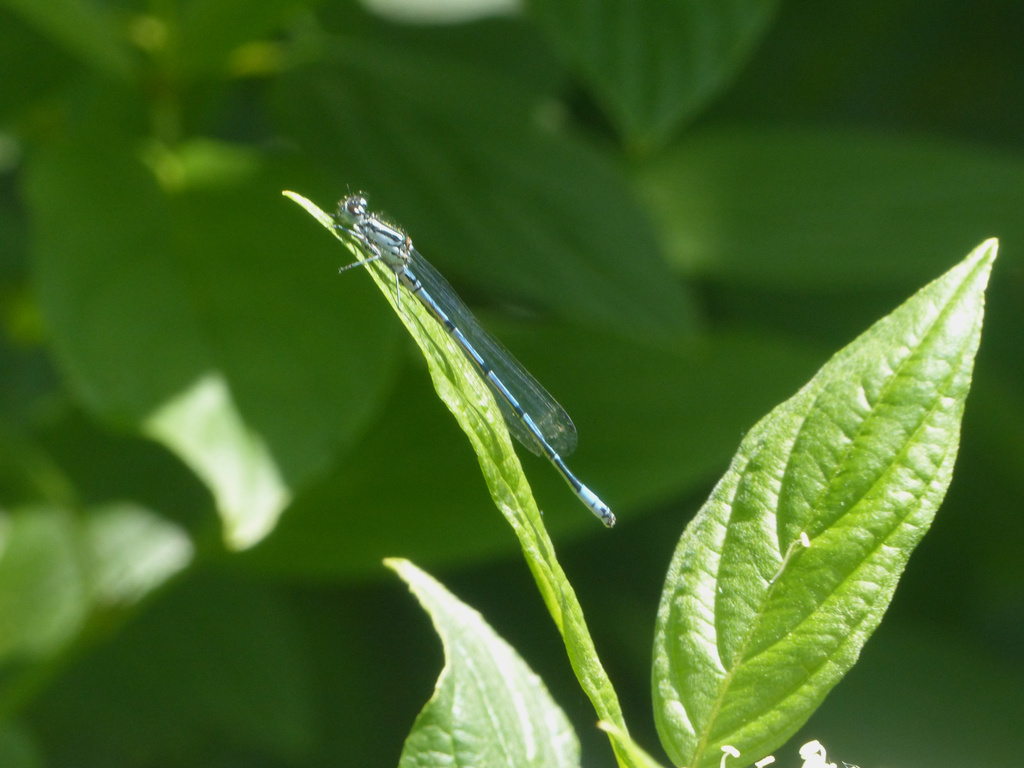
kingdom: Animalia
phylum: Arthropoda
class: Insecta
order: Odonata
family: Coenagrionidae
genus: Coenagrion
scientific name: Coenagrion puella
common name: Azure damselfly
